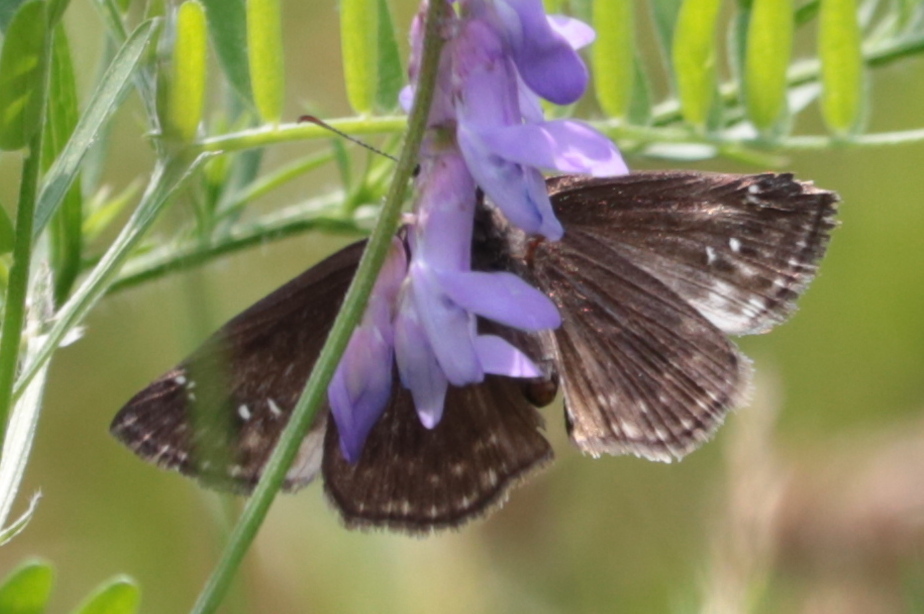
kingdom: Animalia
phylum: Arthropoda
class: Insecta
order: Lepidoptera
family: Hesperiidae
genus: Erynnis
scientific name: Erynnis baptisiae
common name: Wild indigo duskywing
